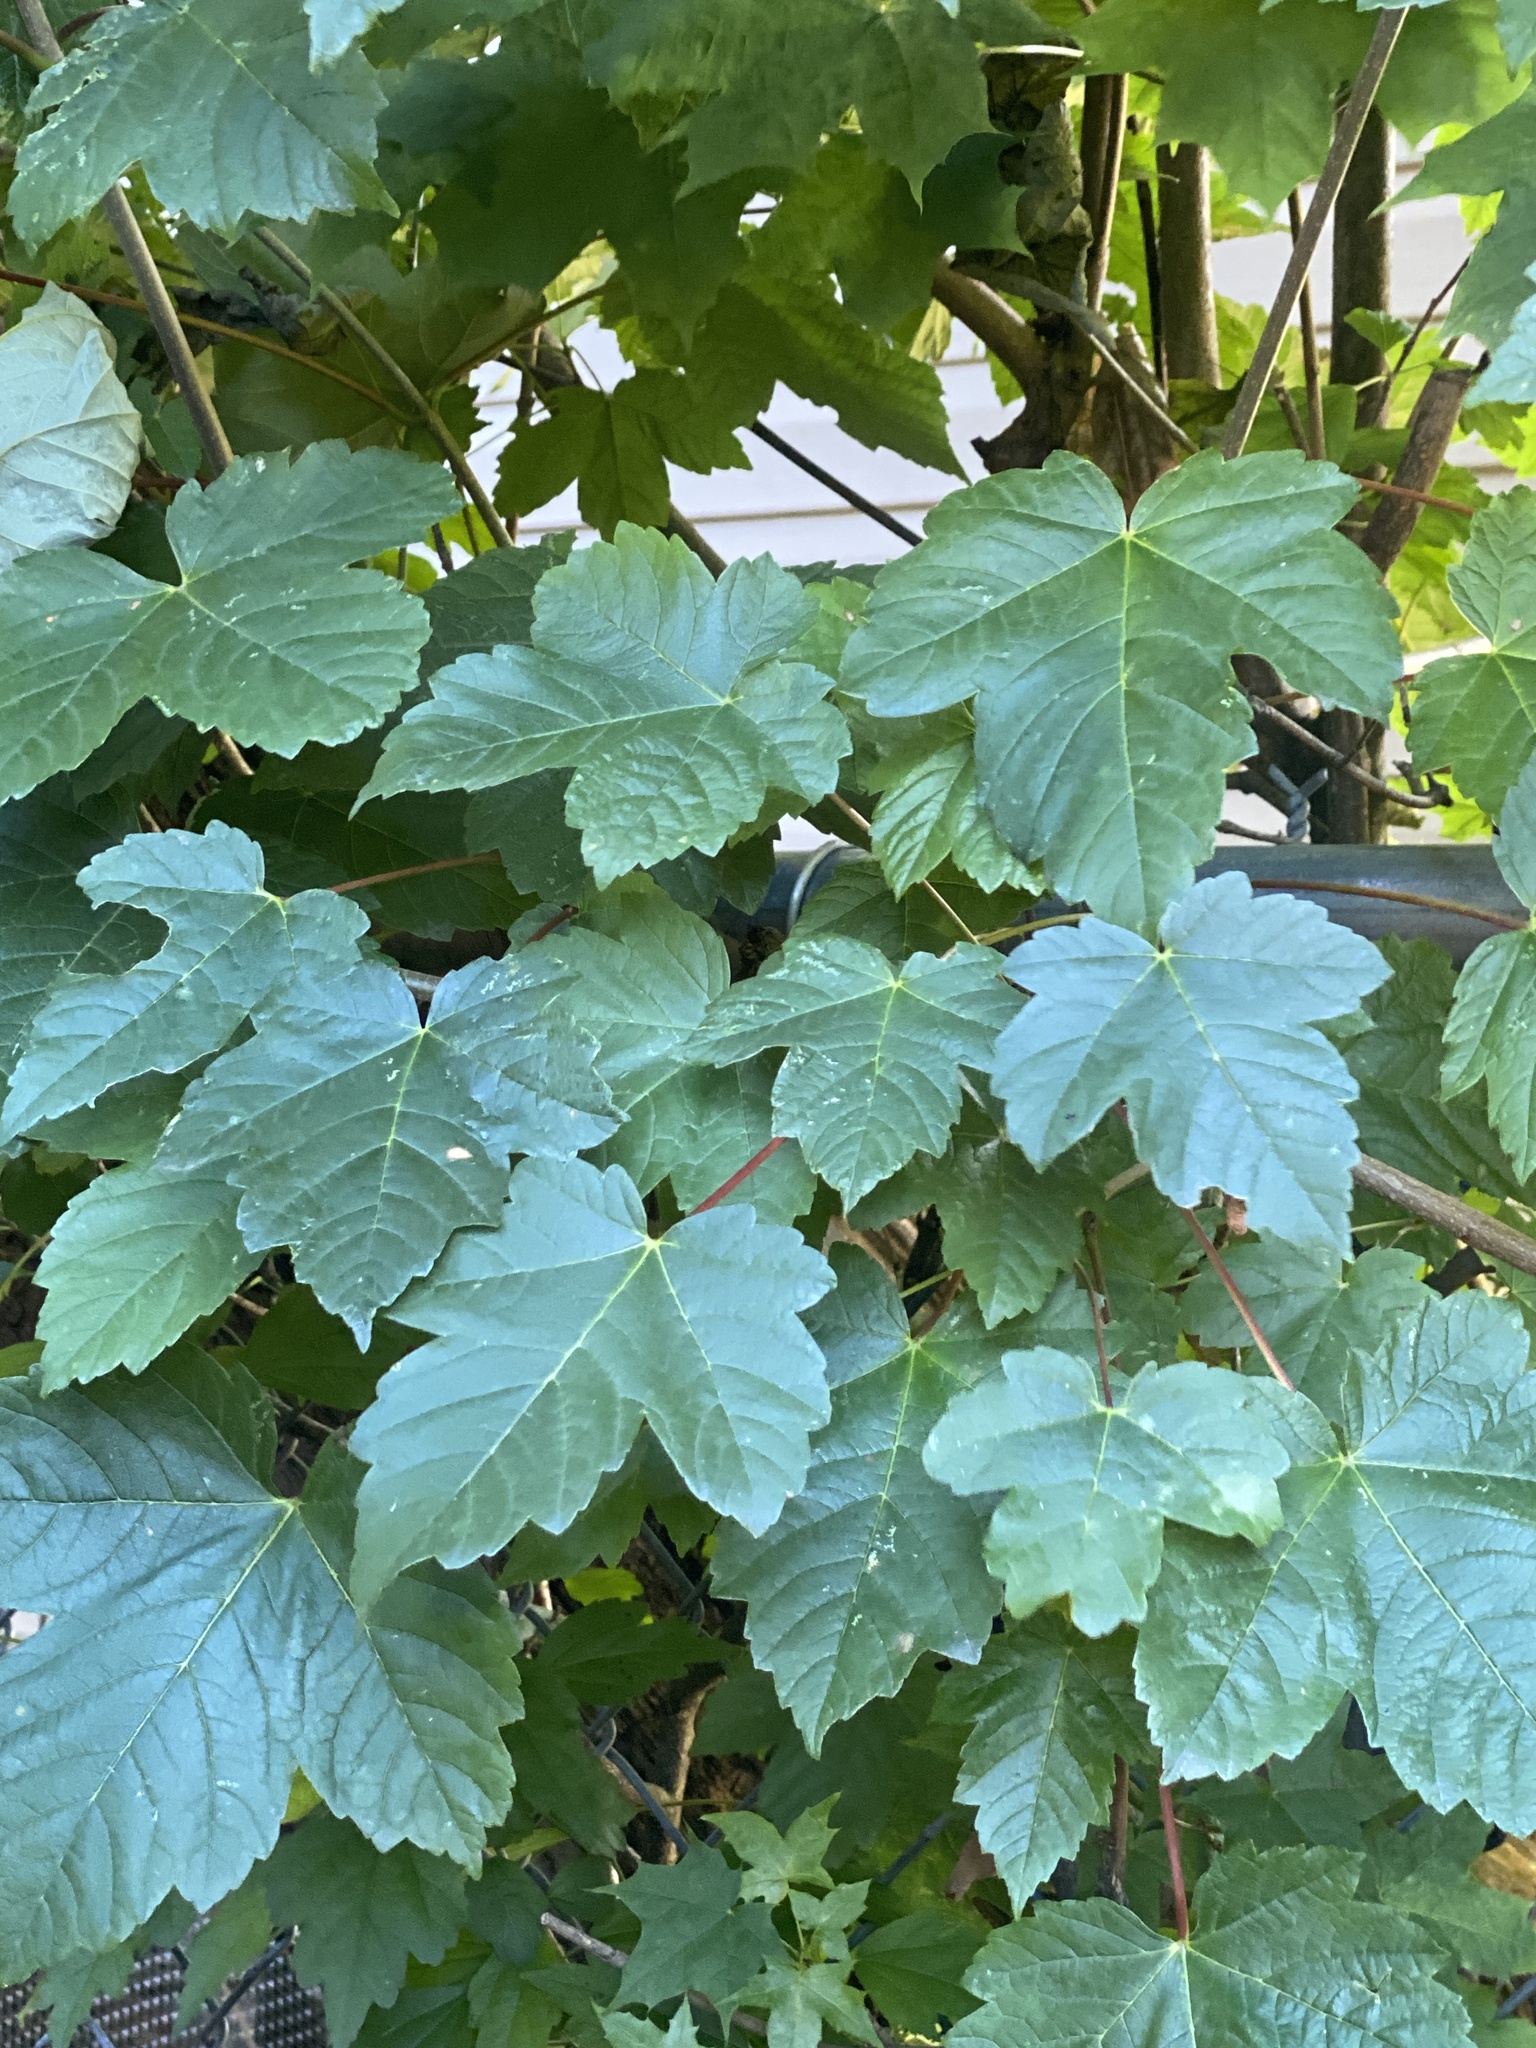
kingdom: Plantae
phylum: Tracheophyta
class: Magnoliopsida
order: Sapindales
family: Sapindaceae
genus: Acer
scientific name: Acer pseudoplatanus
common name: Sycamore
